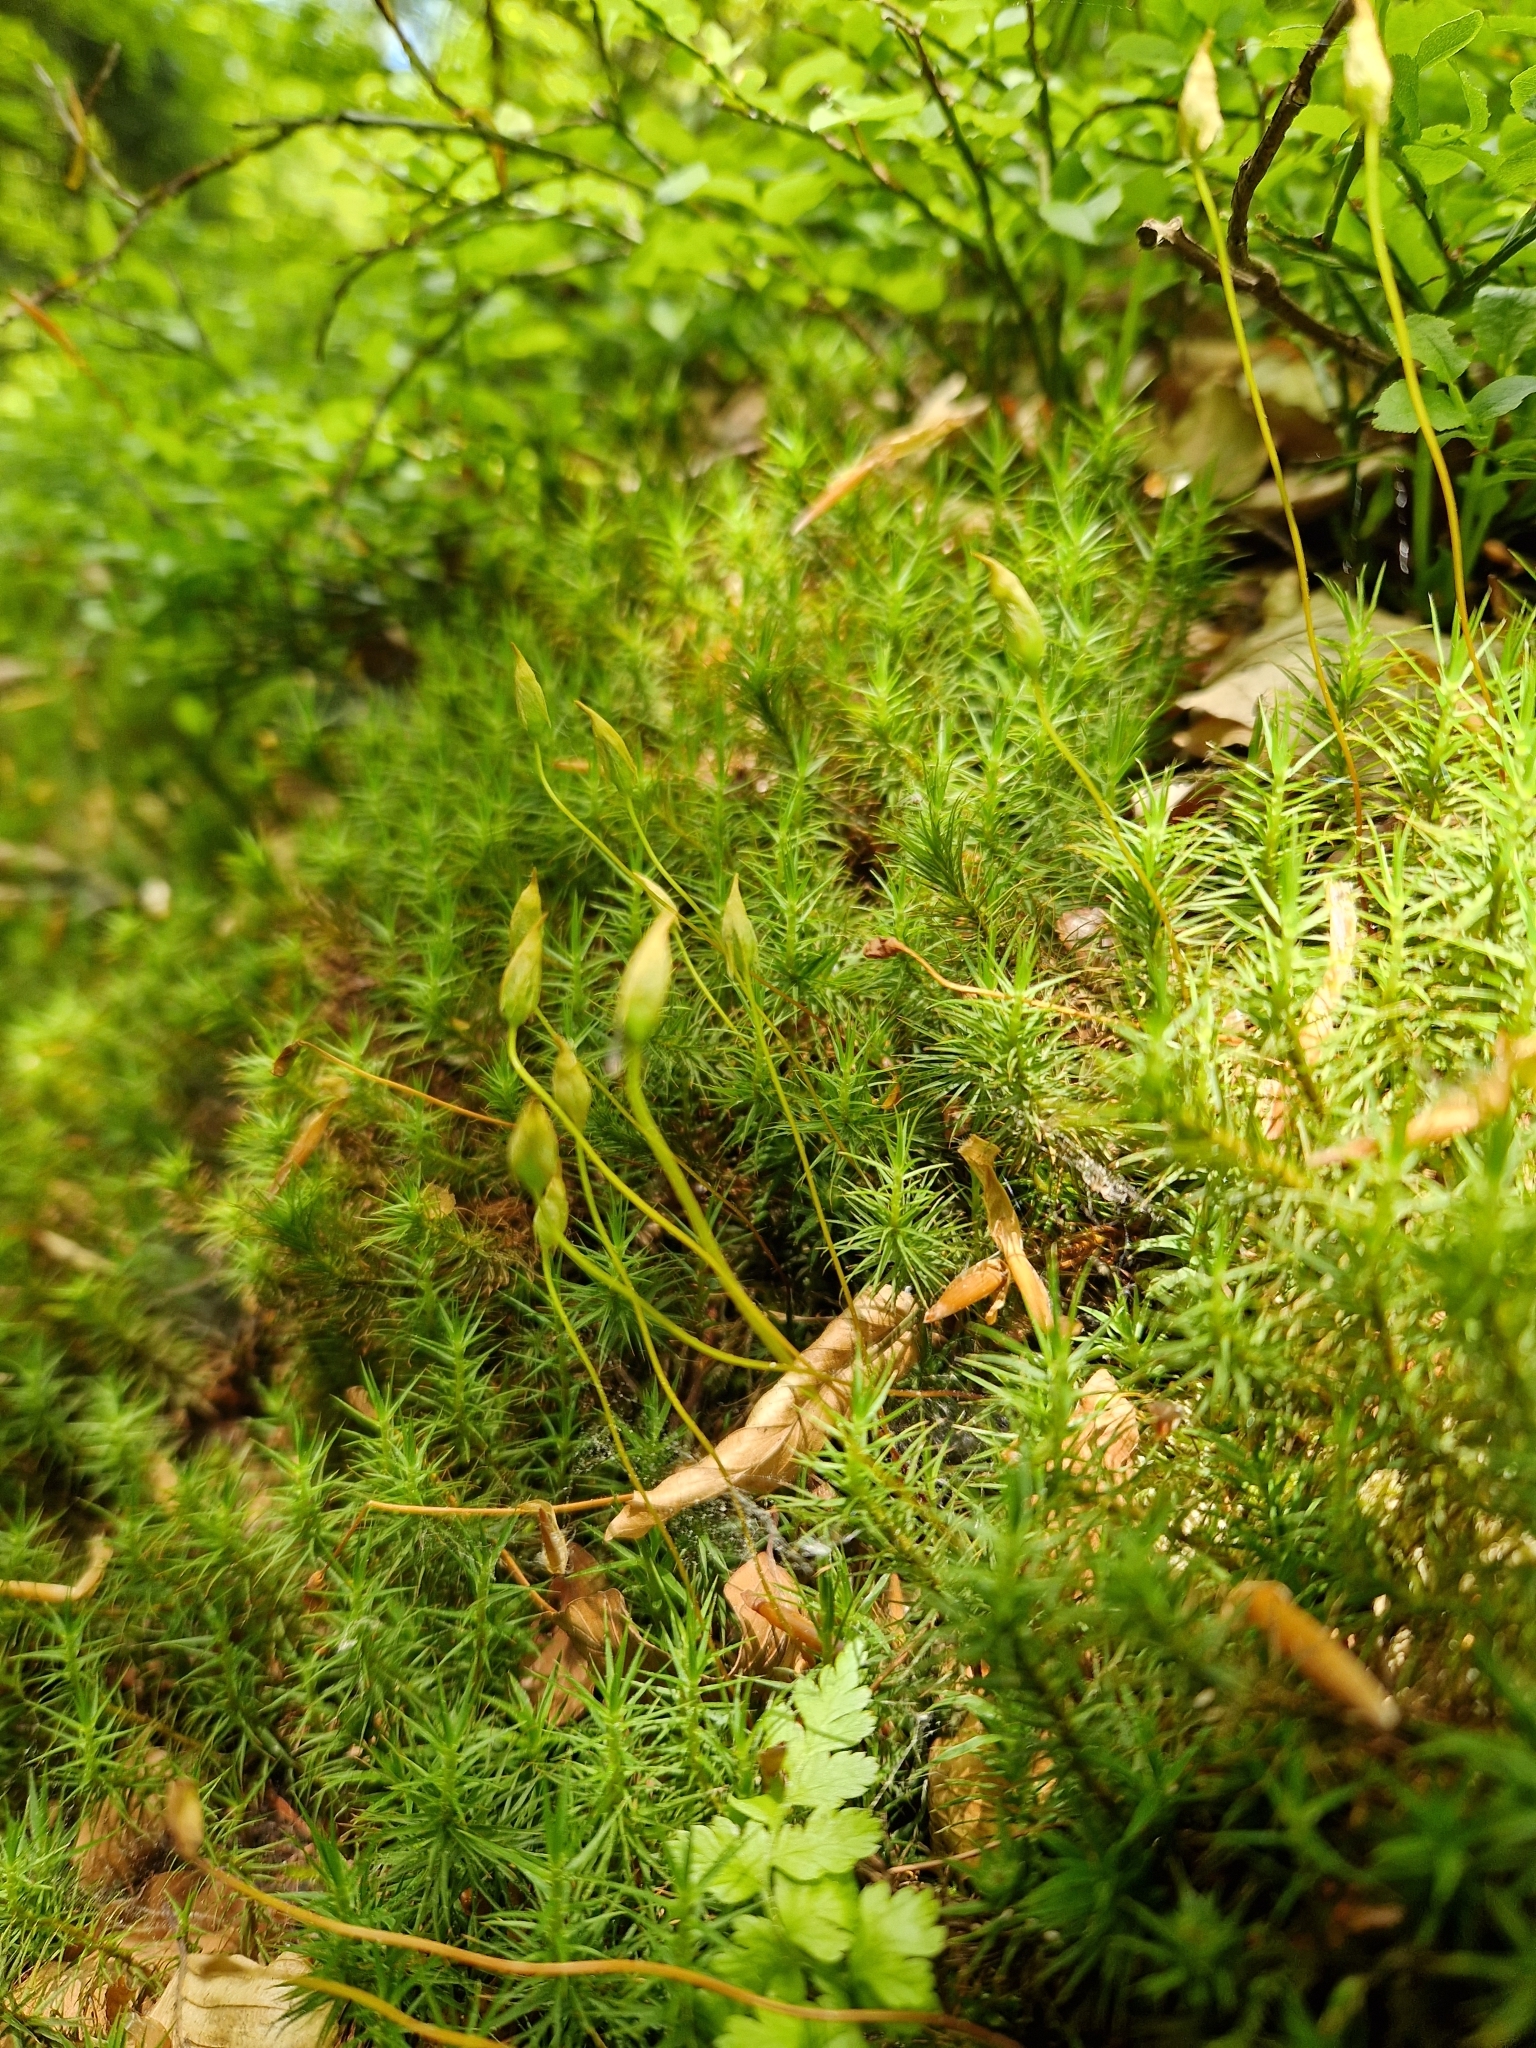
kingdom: Plantae
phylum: Bryophyta
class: Polytrichopsida
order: Polytrichales
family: Polytrichaceae
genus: Polytrichum
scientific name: Polytrichum formosum
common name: Bank haircap moss
